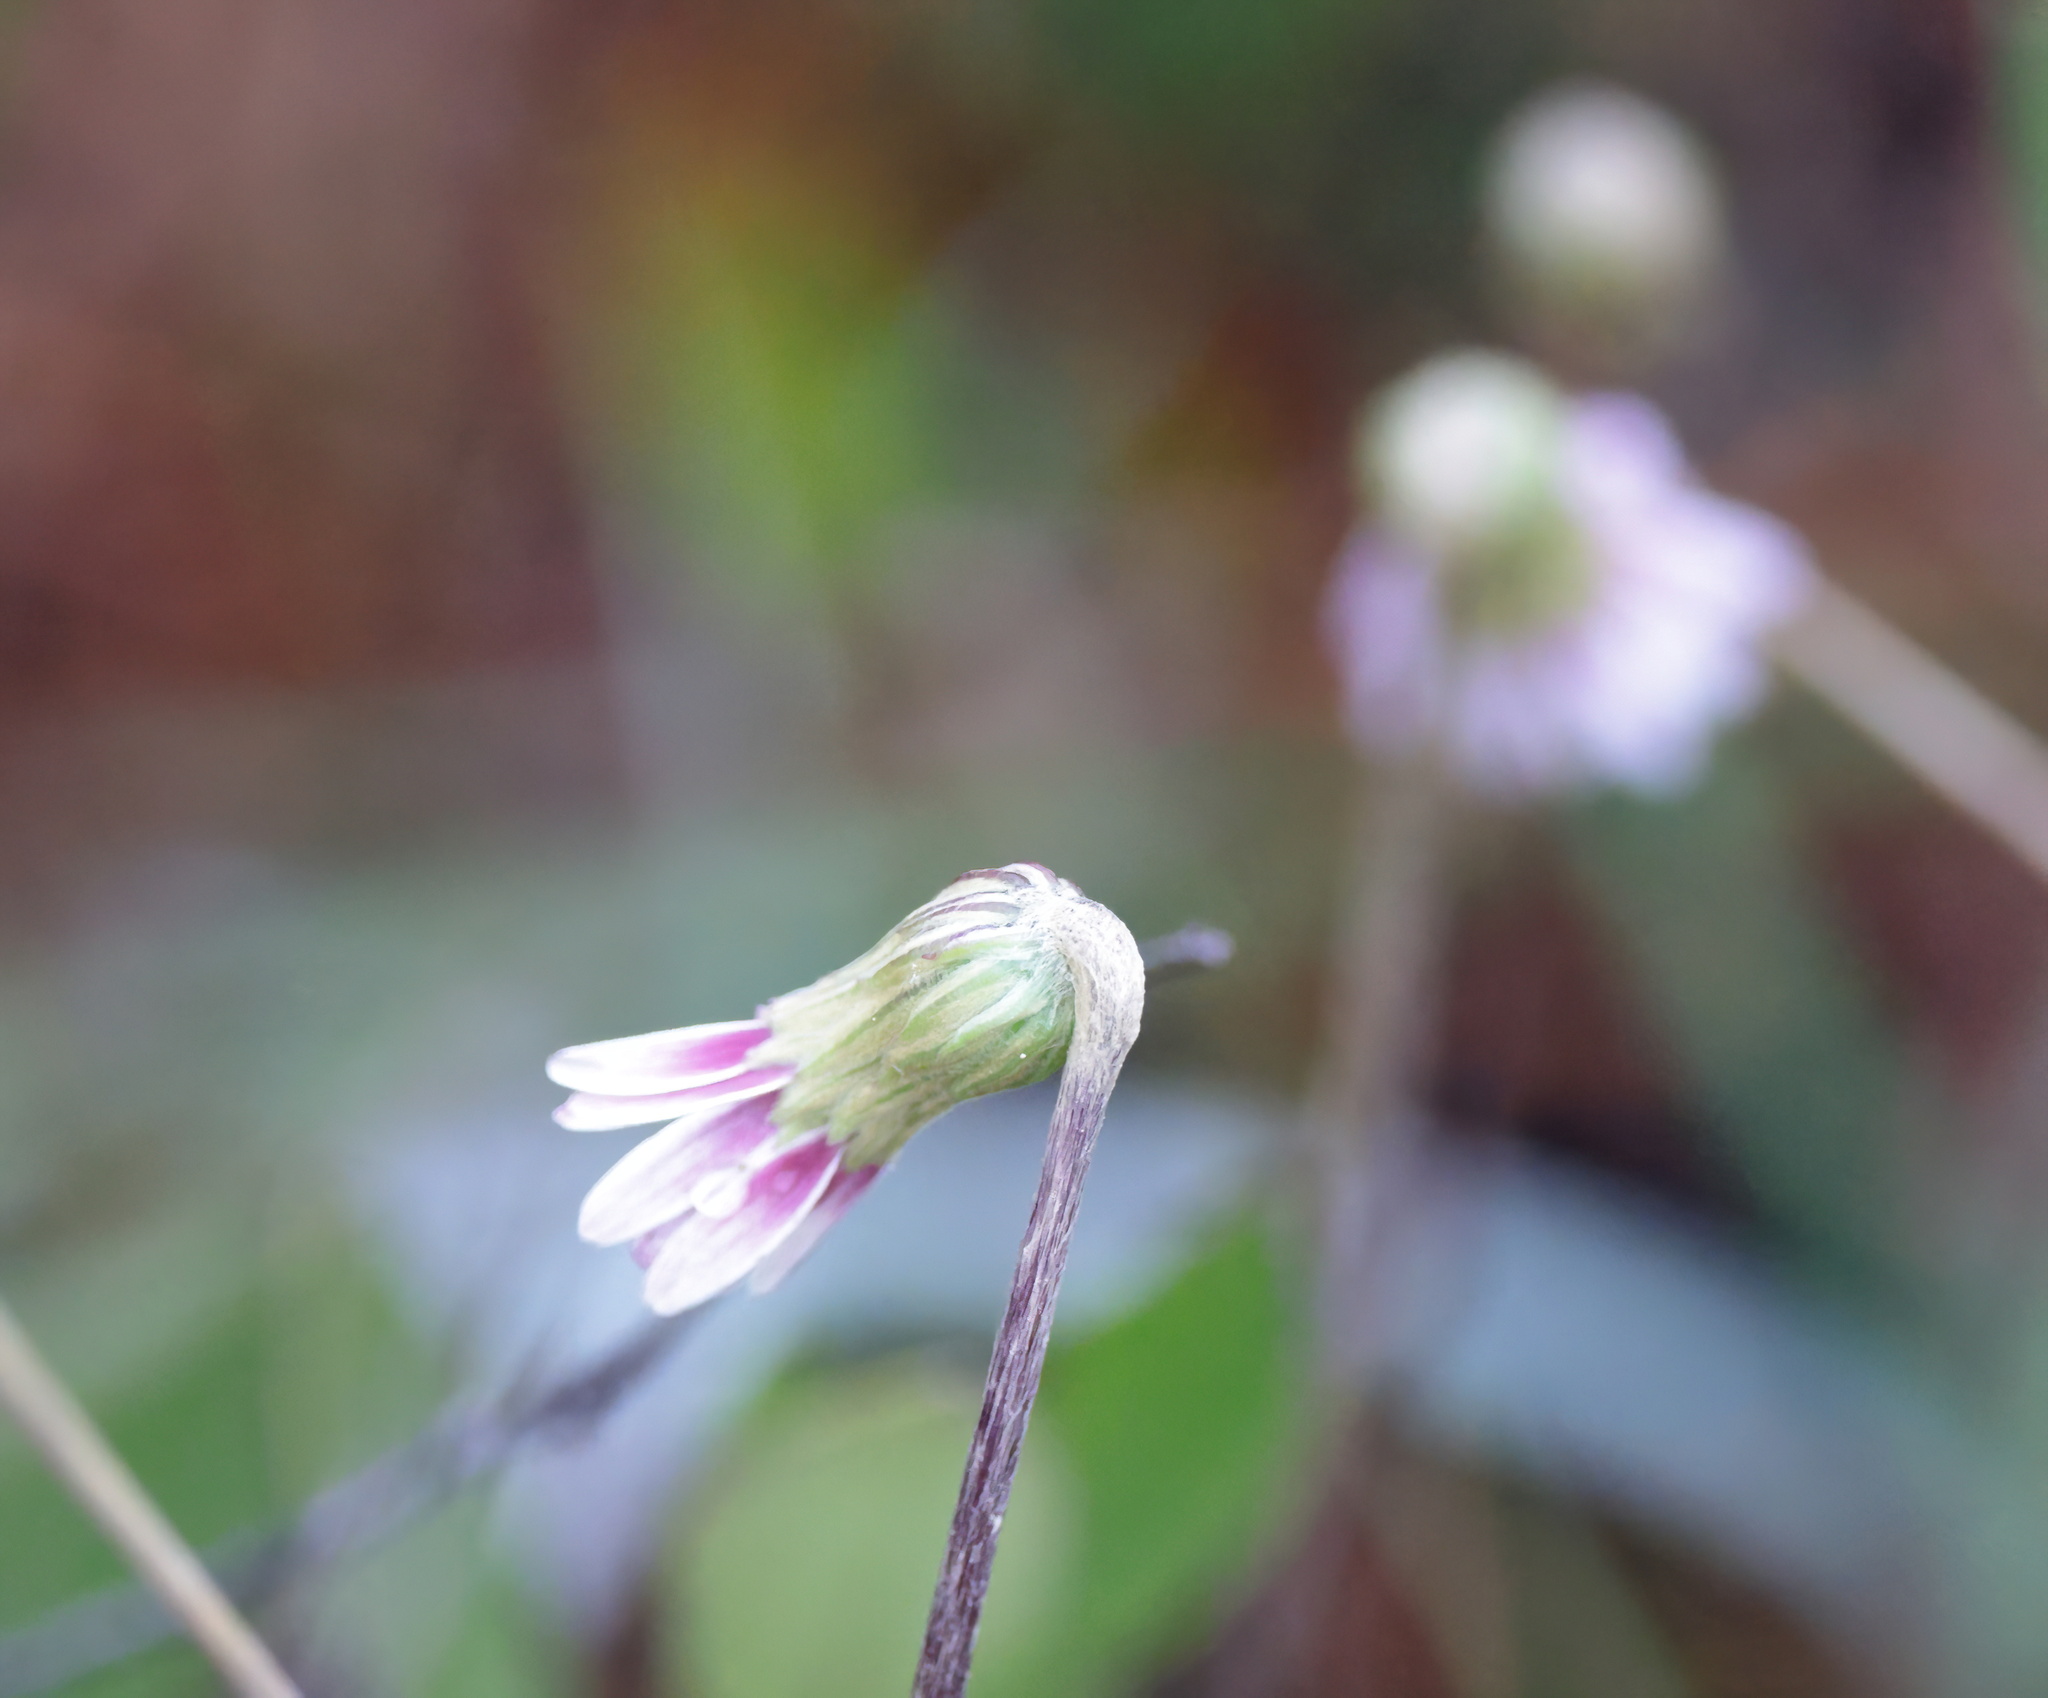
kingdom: Plantae
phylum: Tracheophyta
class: Magnoliopsida
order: Asterales
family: Asteraceae
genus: Chaptalia
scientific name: Chaptalia tomentosa
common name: Woolly sunbonnet
